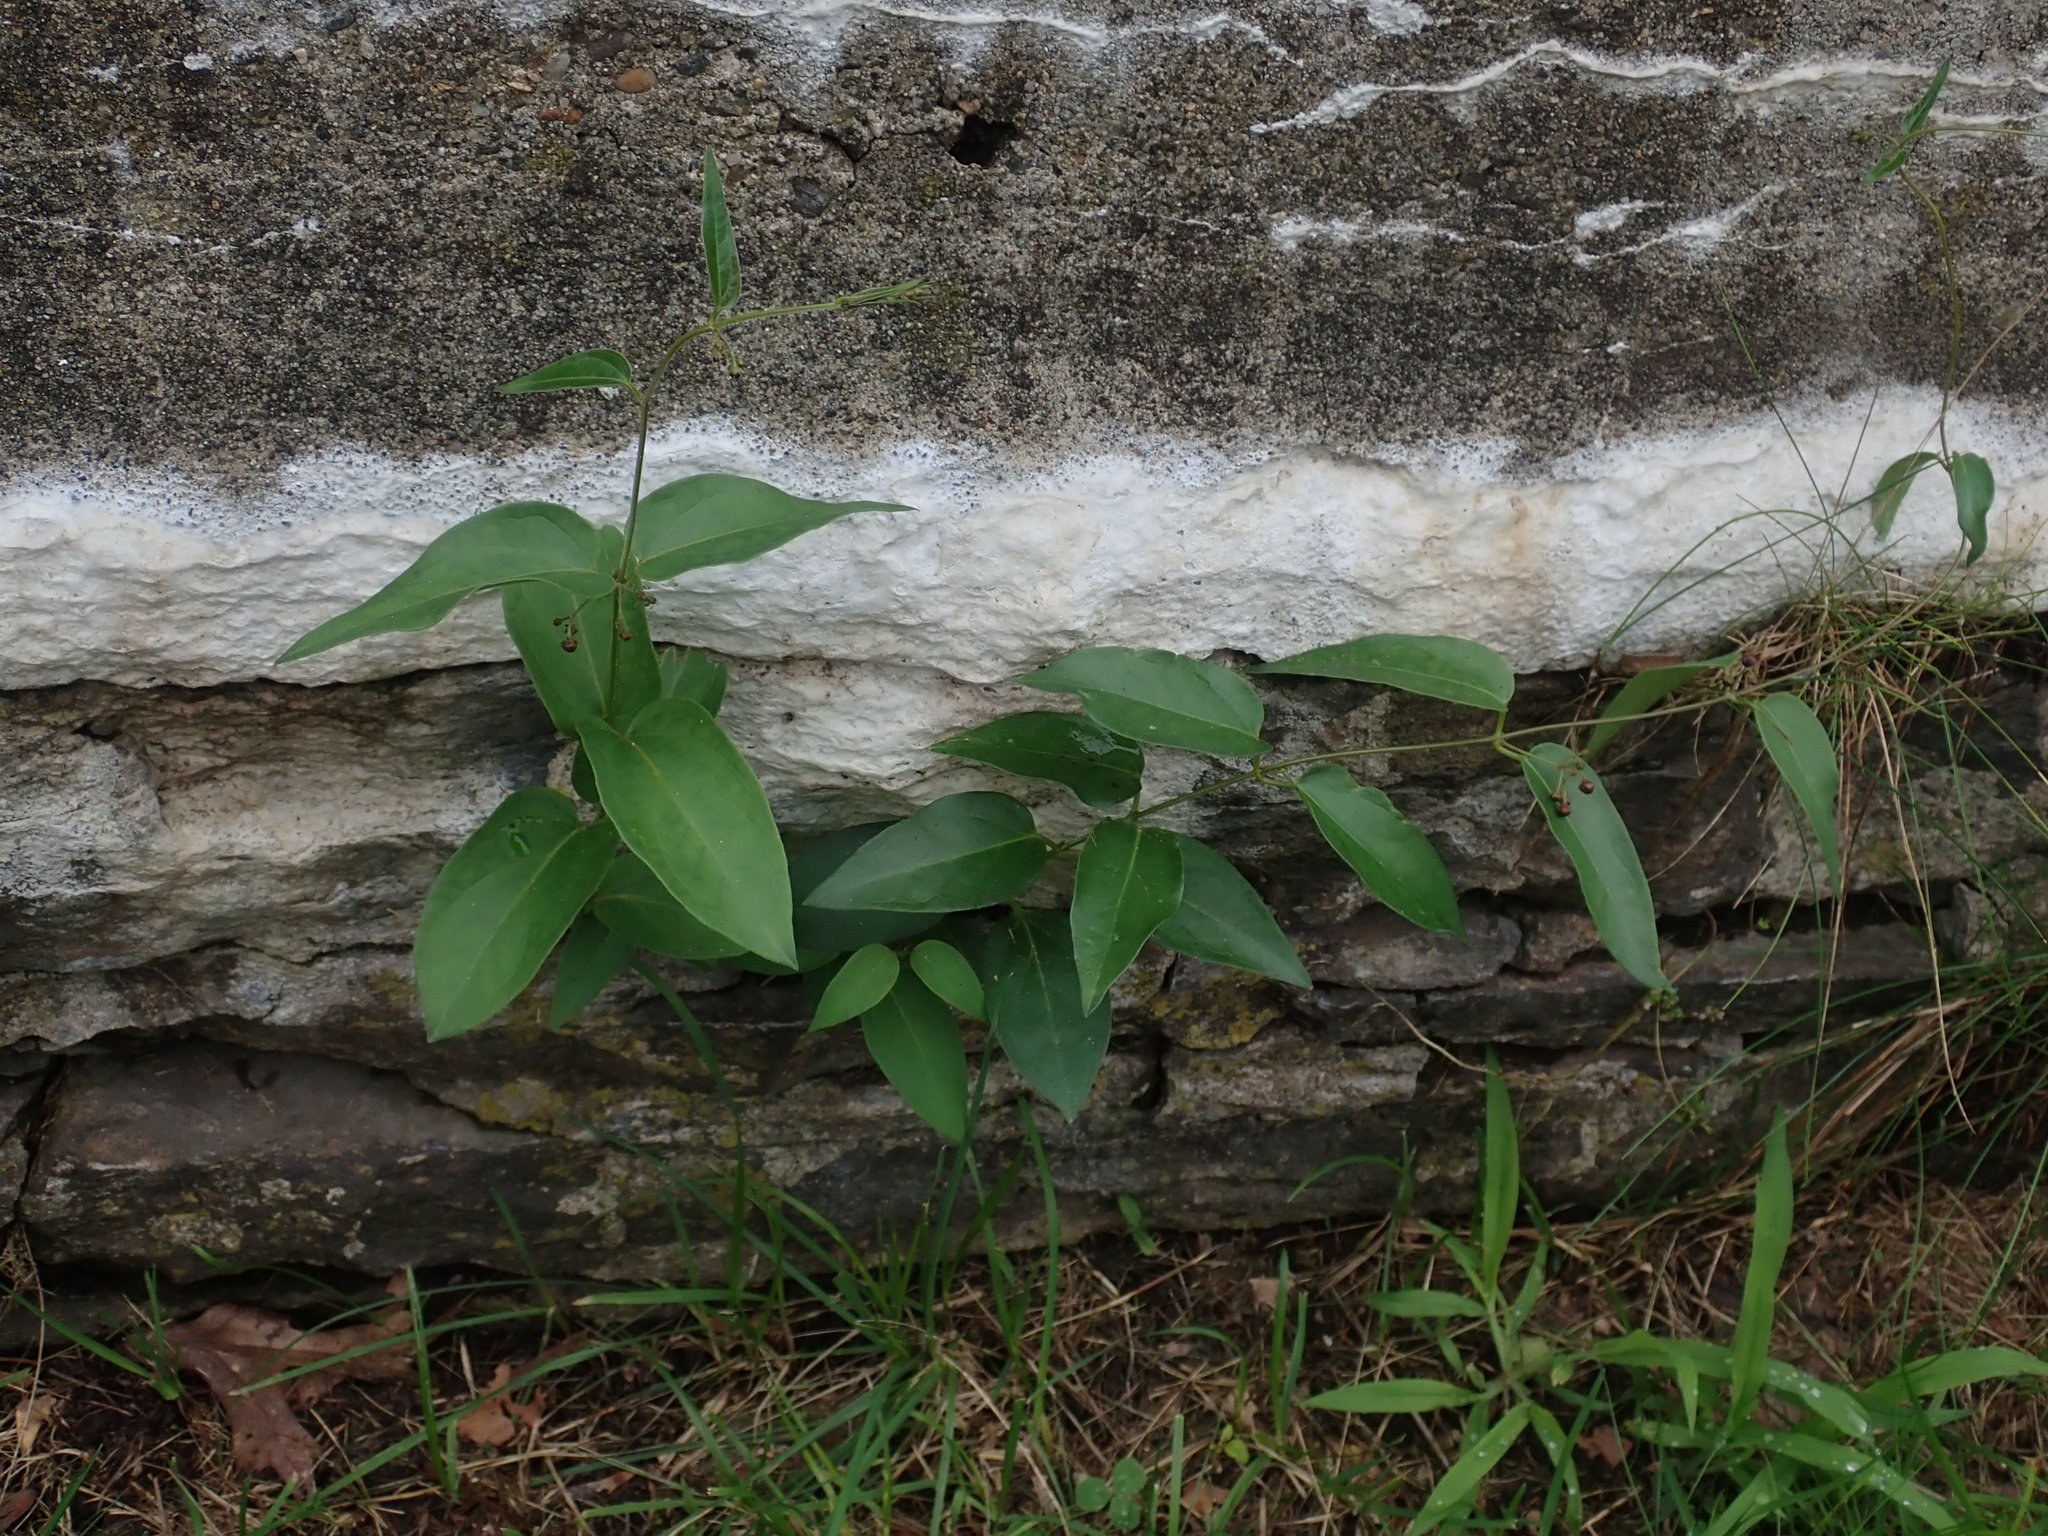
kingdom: Plantae
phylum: Tracheophyta
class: Magnoliopsida
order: Gentianales
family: Apocynaceae
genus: Vincetoxicum
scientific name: Vincetoxicum
